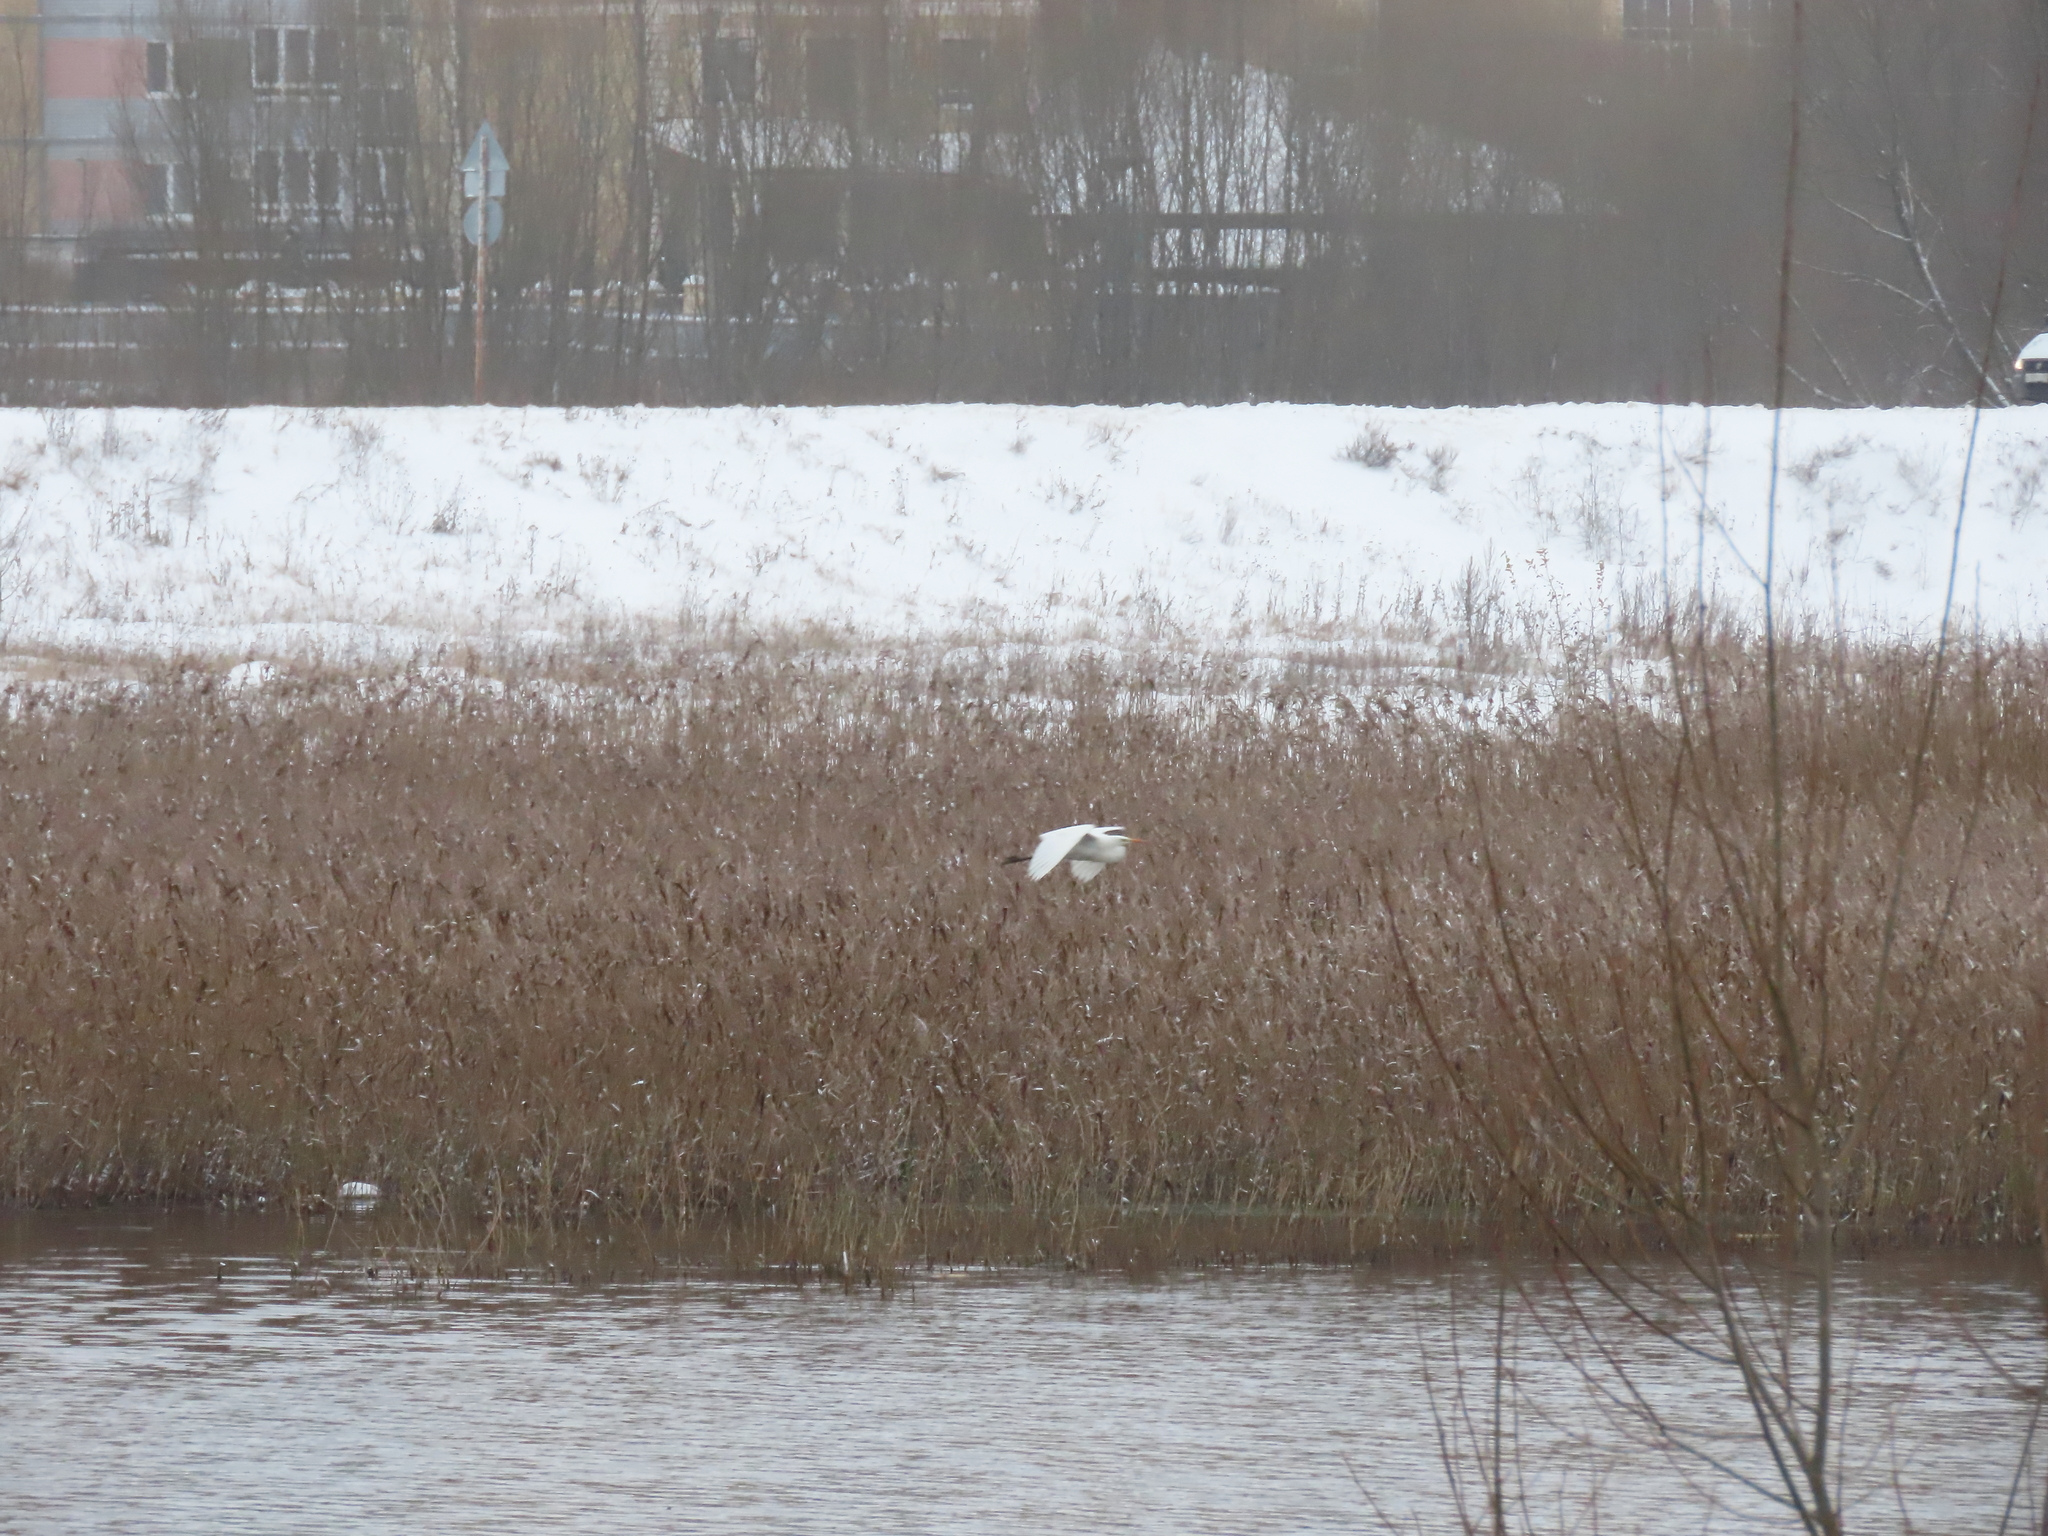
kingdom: Animalia
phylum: Chordata
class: Aves
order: Pelecaniformes
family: Ardeidae
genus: Ardea
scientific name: Ardea alba
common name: Great egret
